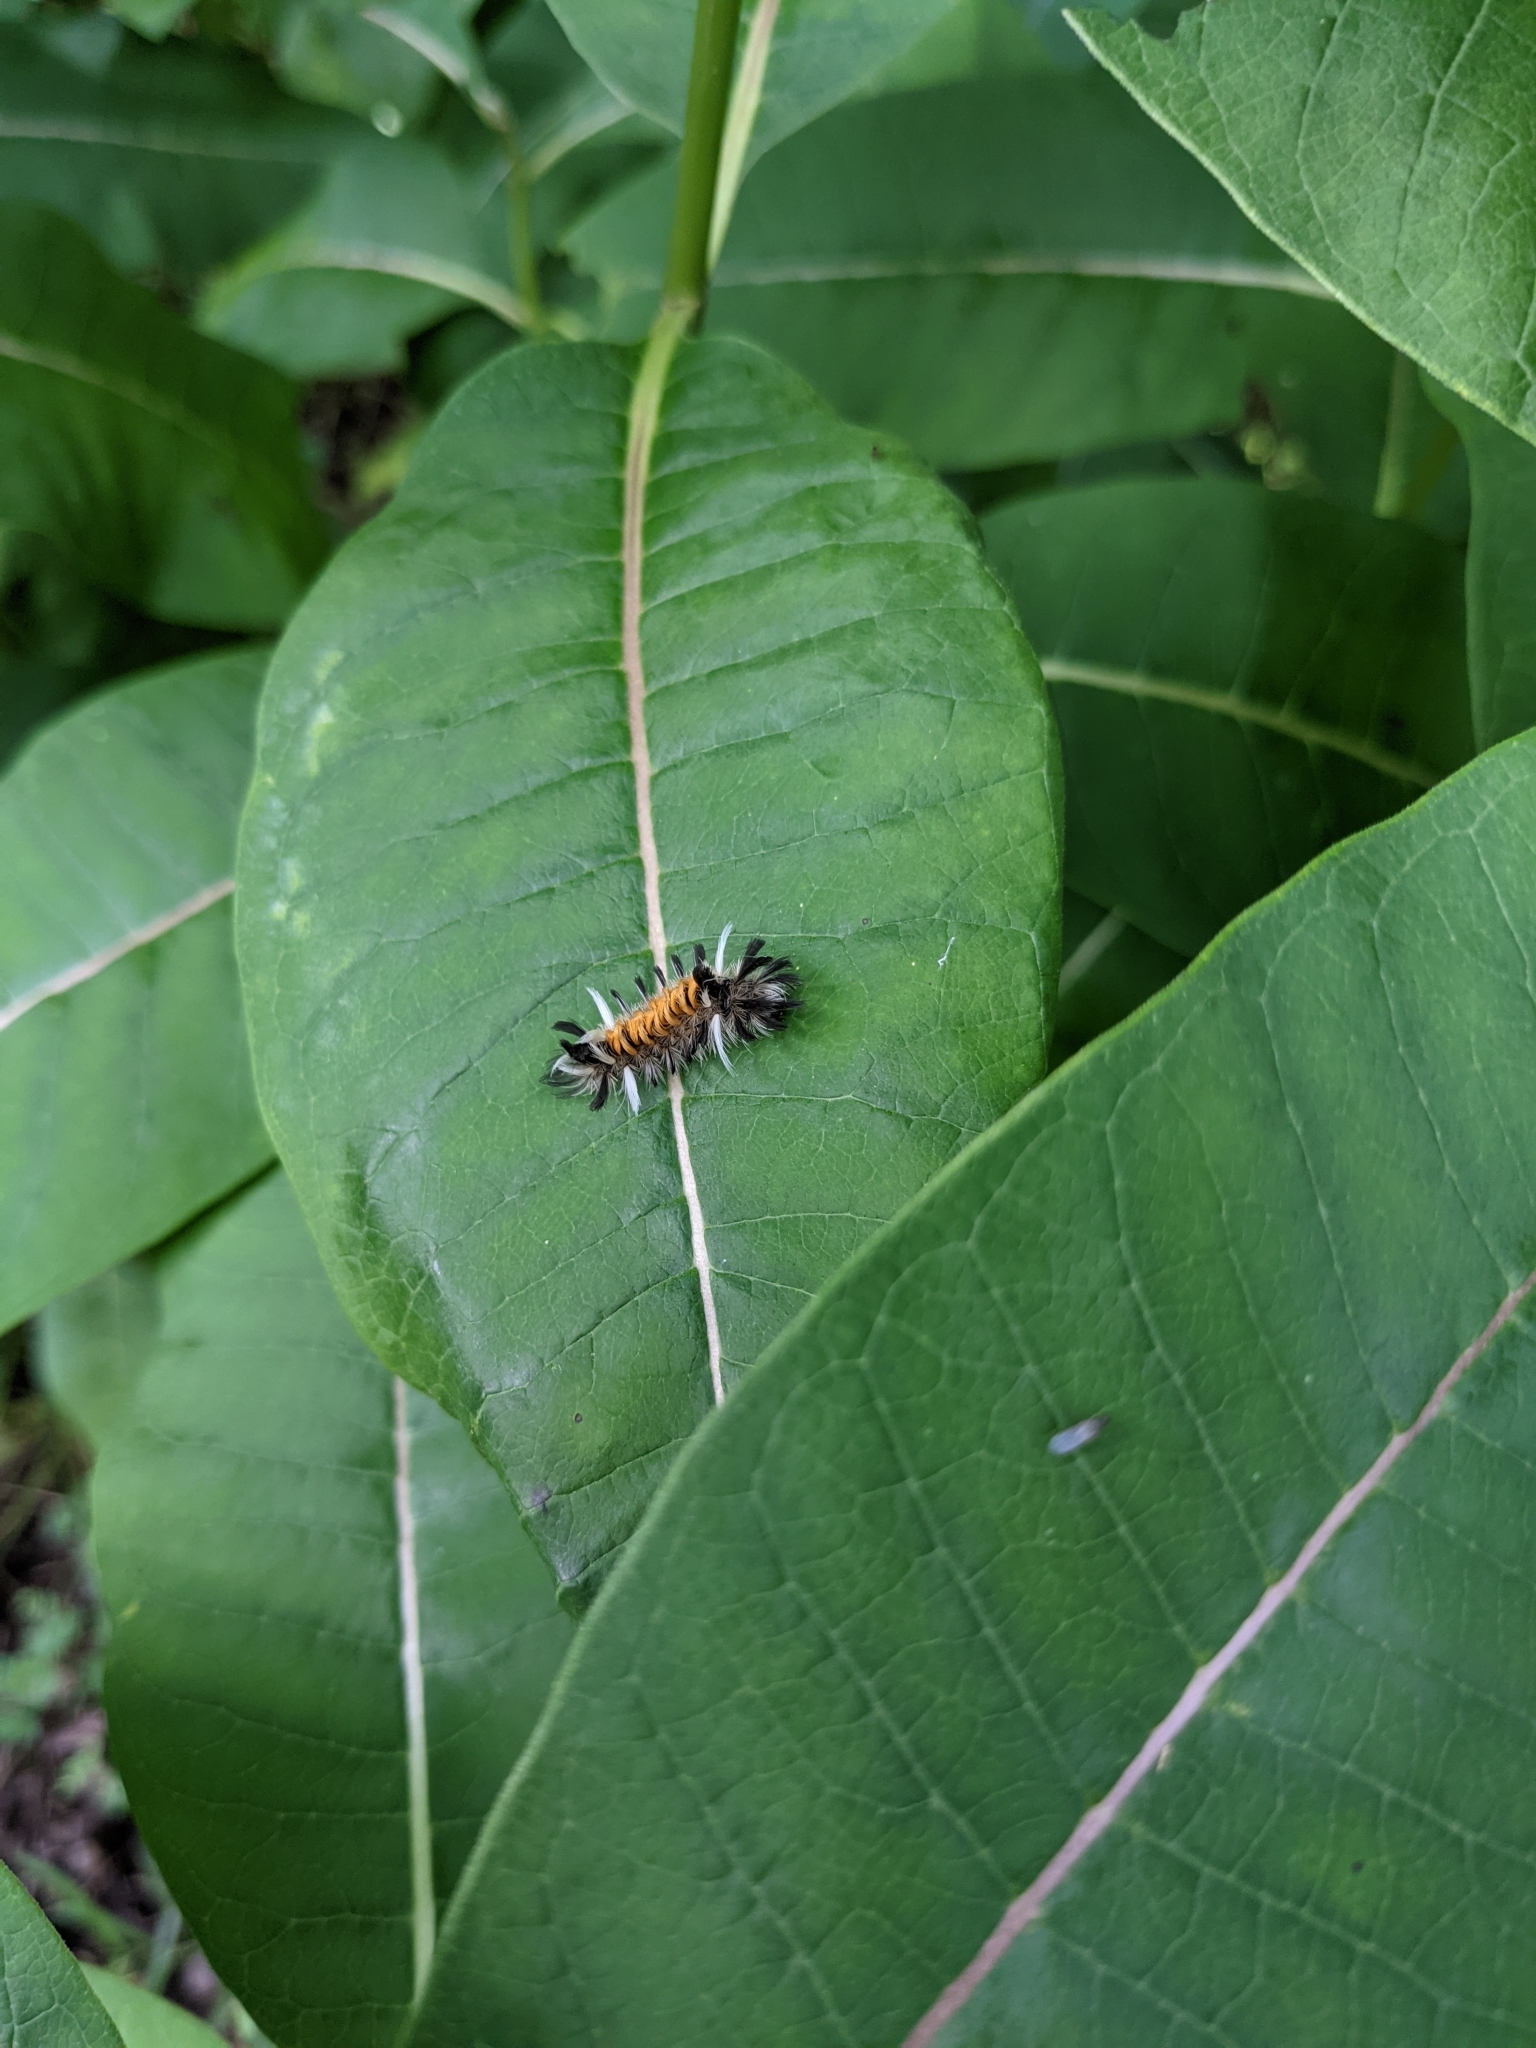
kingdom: Animalia
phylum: Arthropoda
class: Insecta
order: Lepidoptera
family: Erebidae
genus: Euchaetes
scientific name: Euchaetes egle
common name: Milkweed tussock moth
